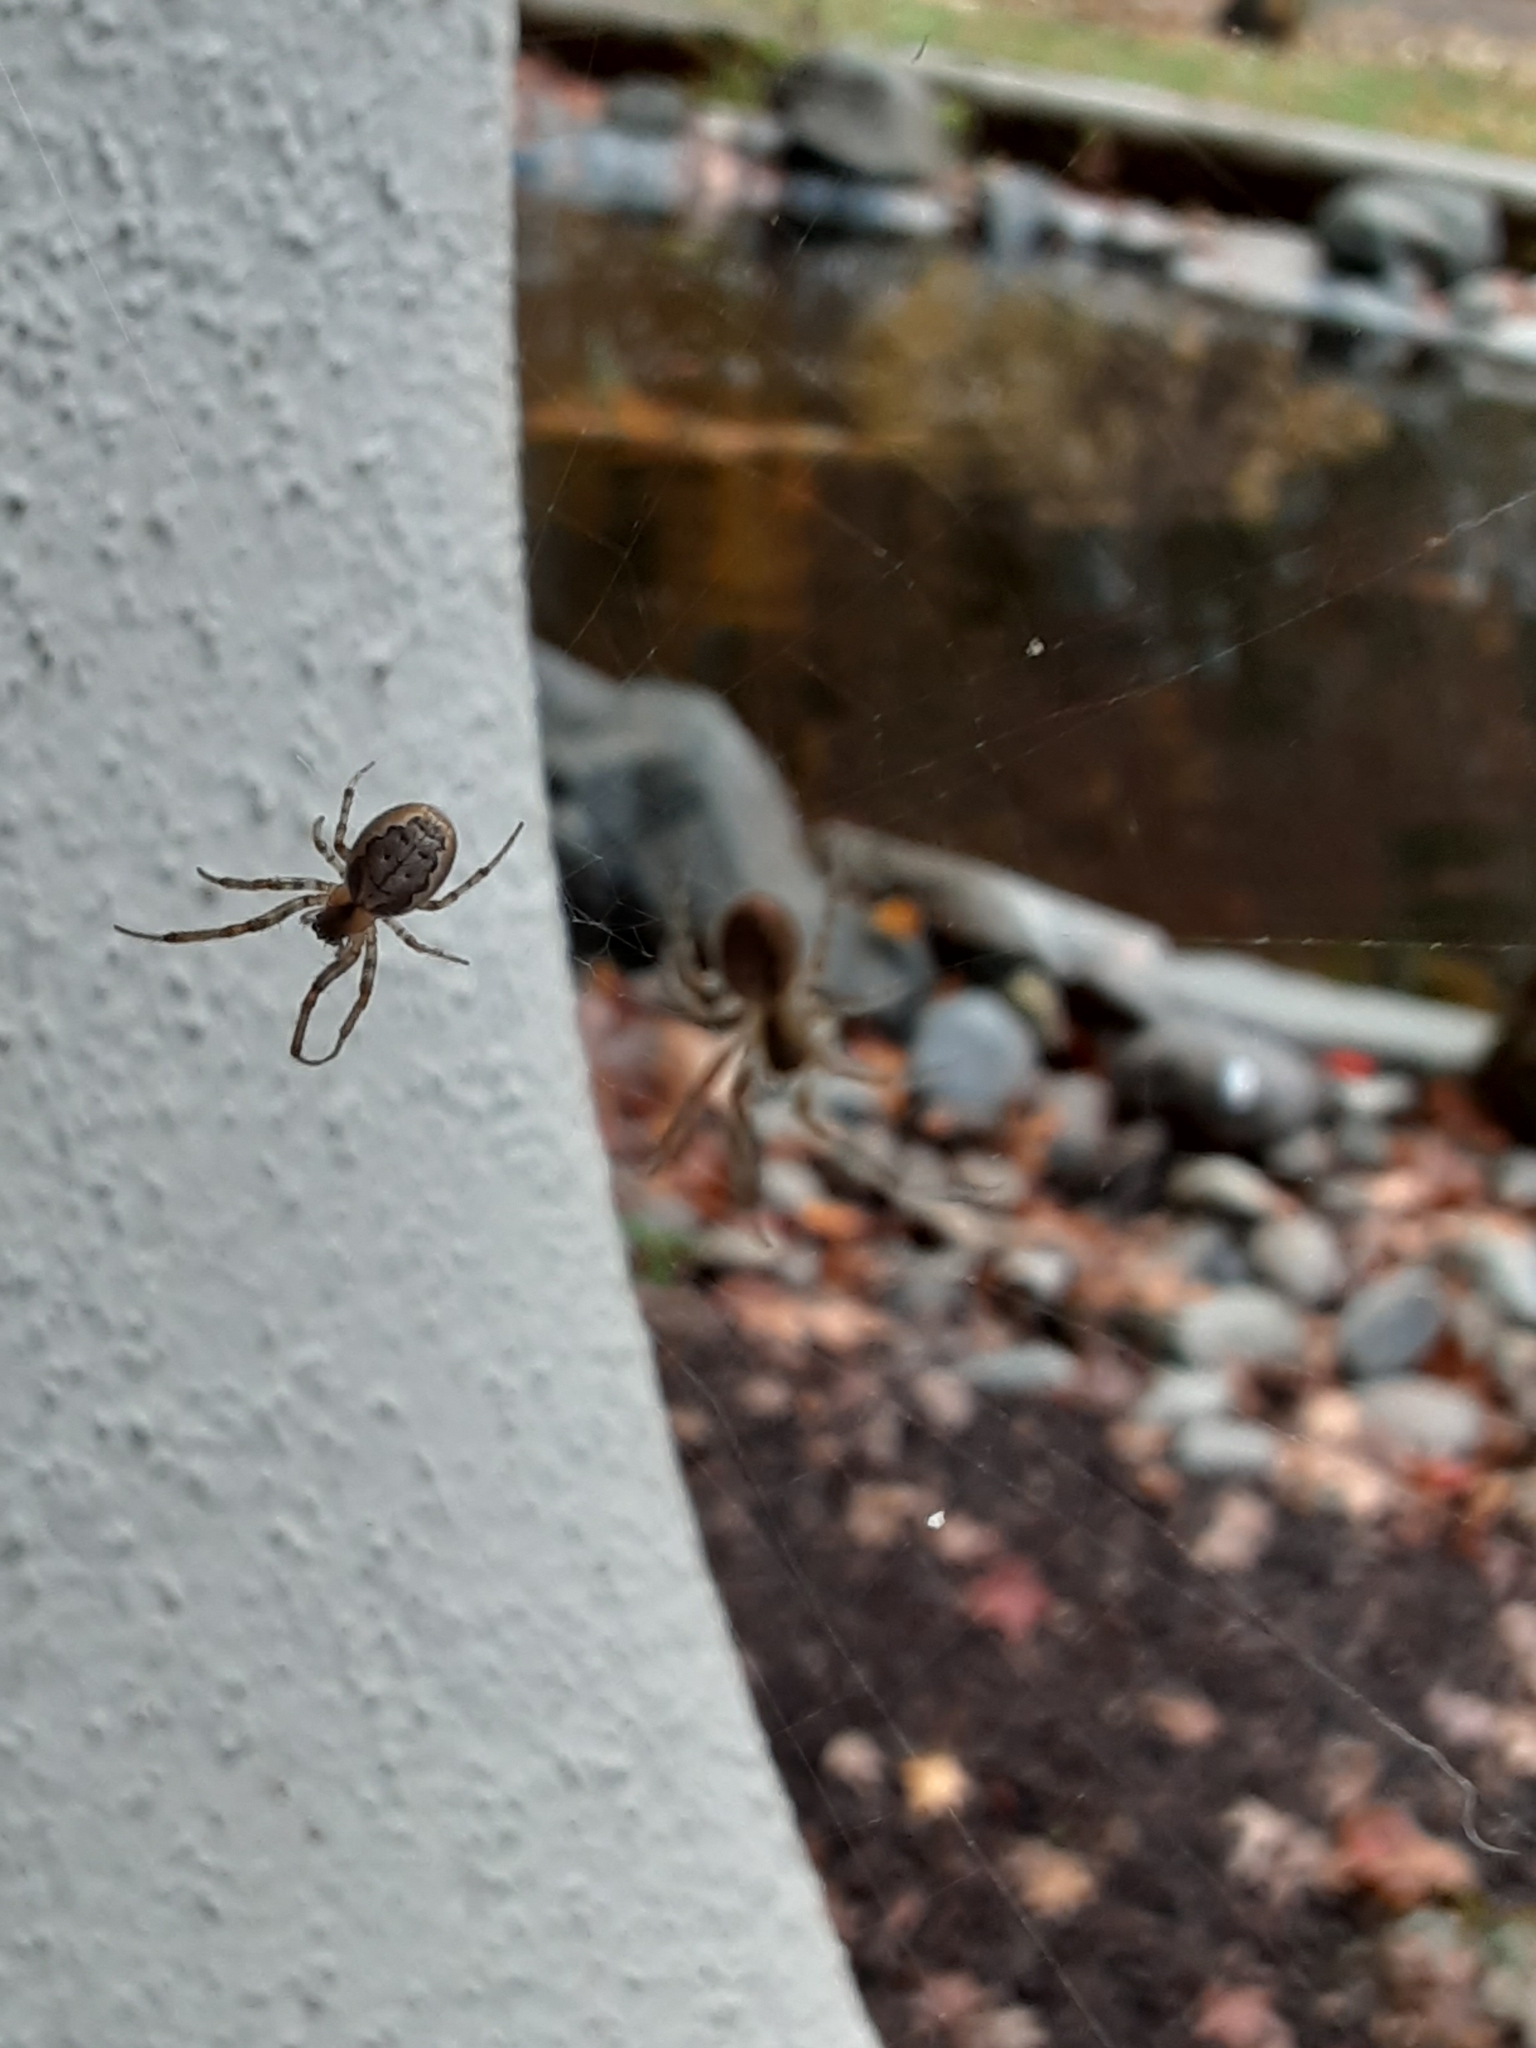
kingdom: Animalia
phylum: Arthropoda
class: Arachnida
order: Araneae
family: Araneidae
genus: Zygiella
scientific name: Zygiella x-notata
